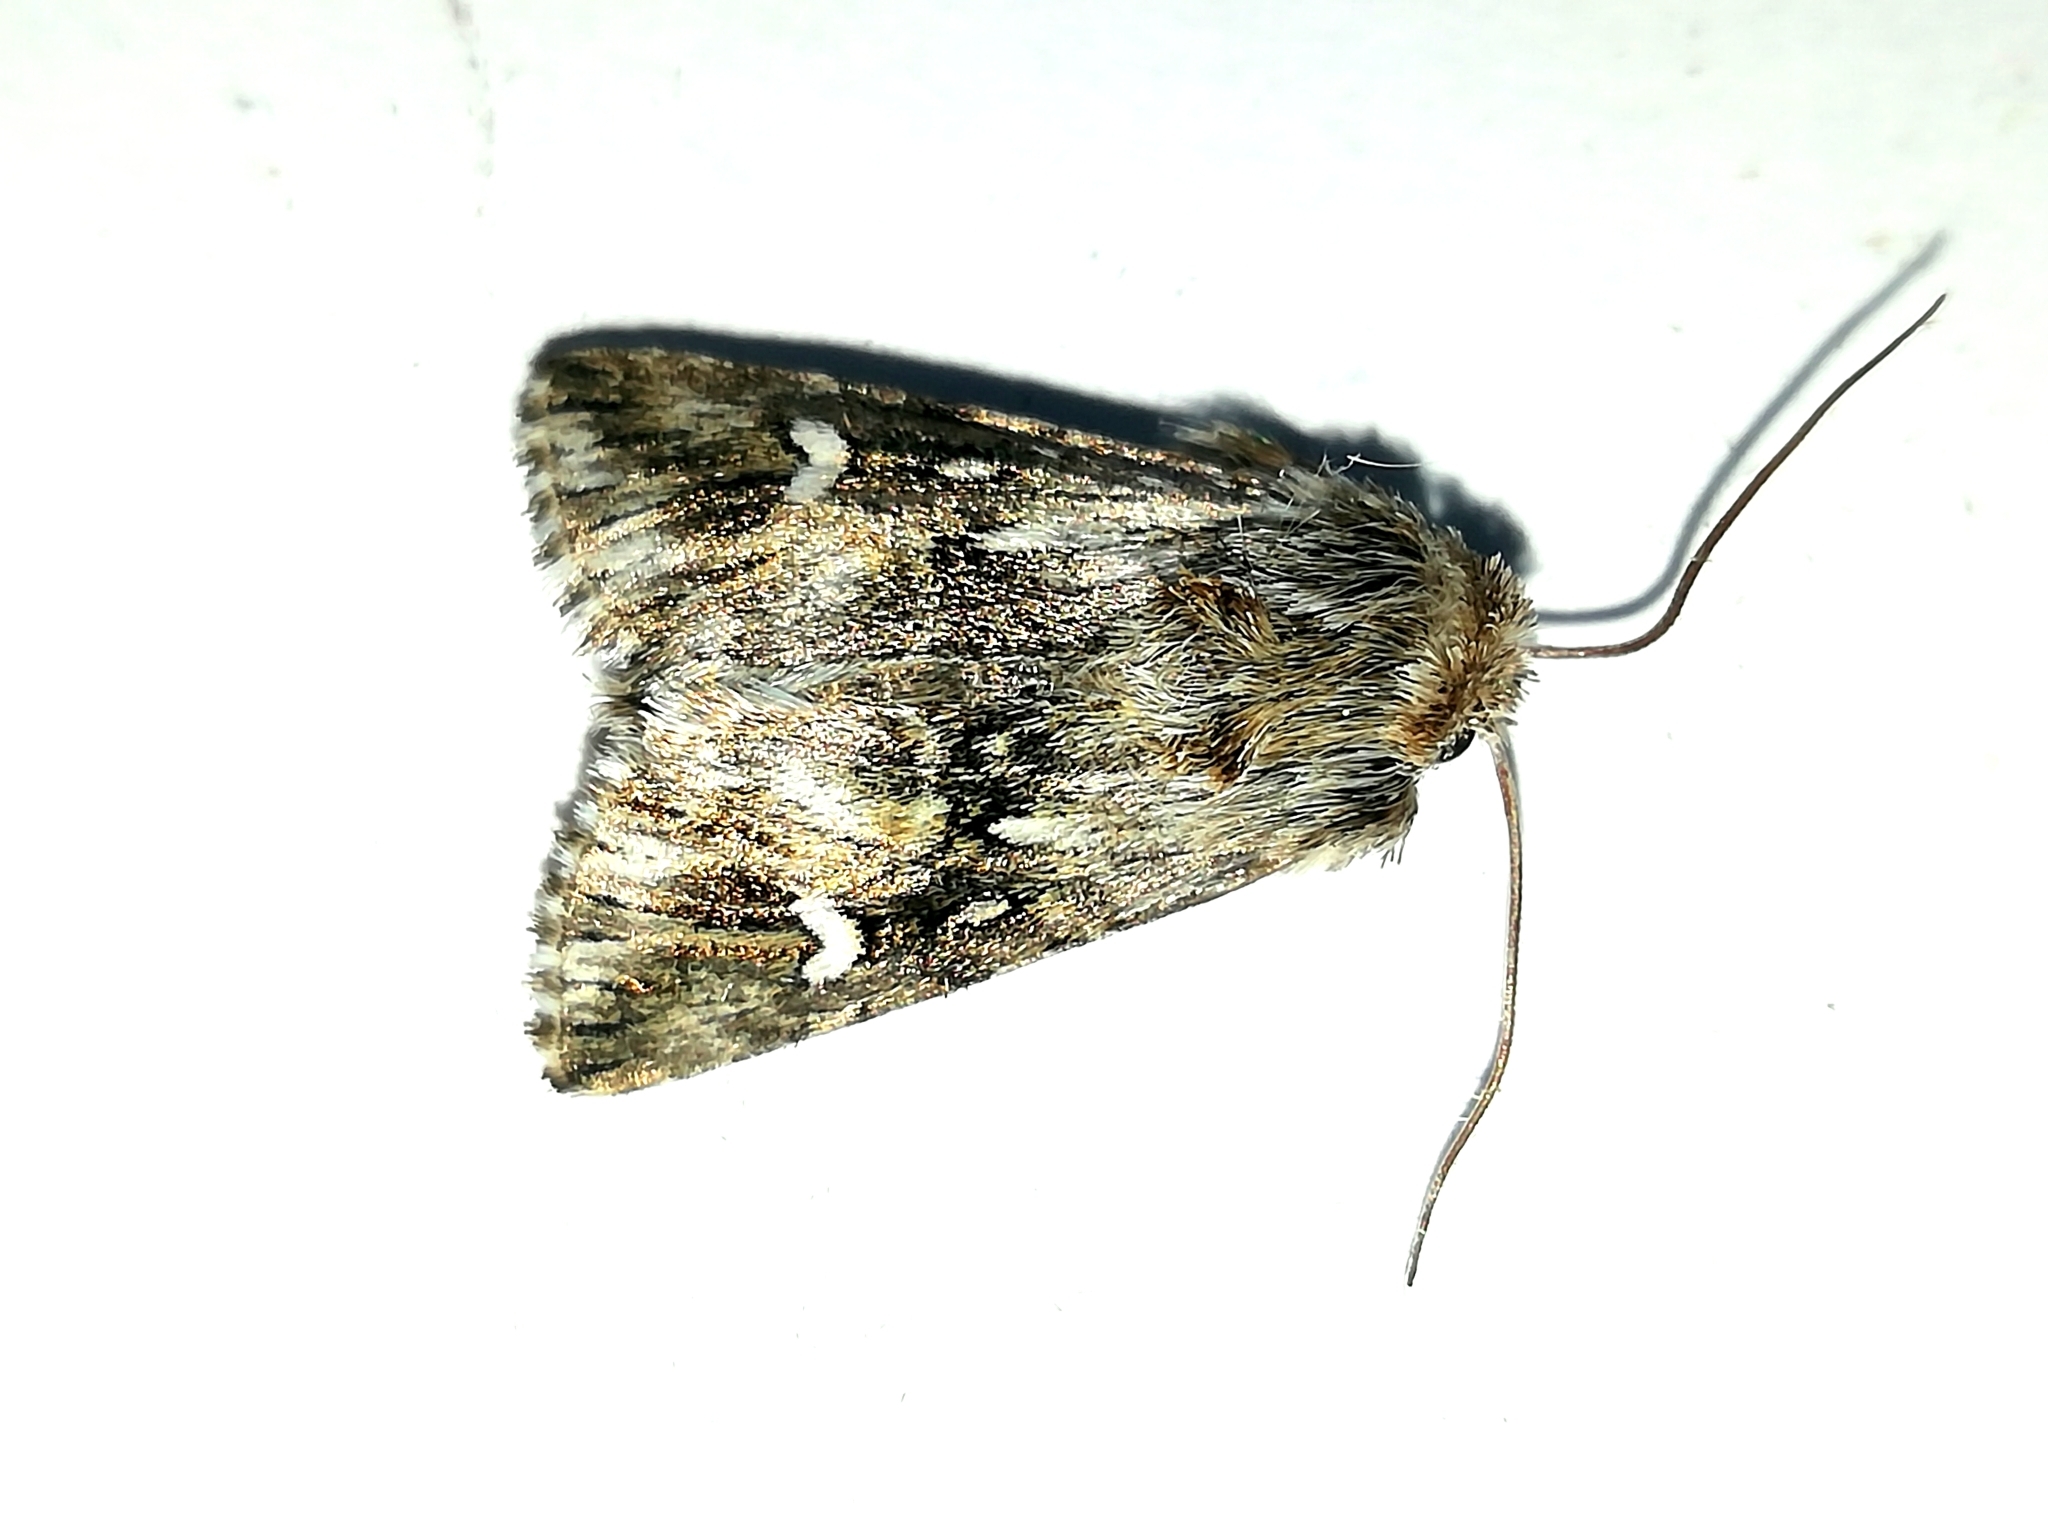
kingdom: Animalia
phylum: Arthropoda
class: Insecta
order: Lepidoptera
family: Noctuidae
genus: Calophasia
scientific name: Calophasia lunula
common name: Toadflax brocade
